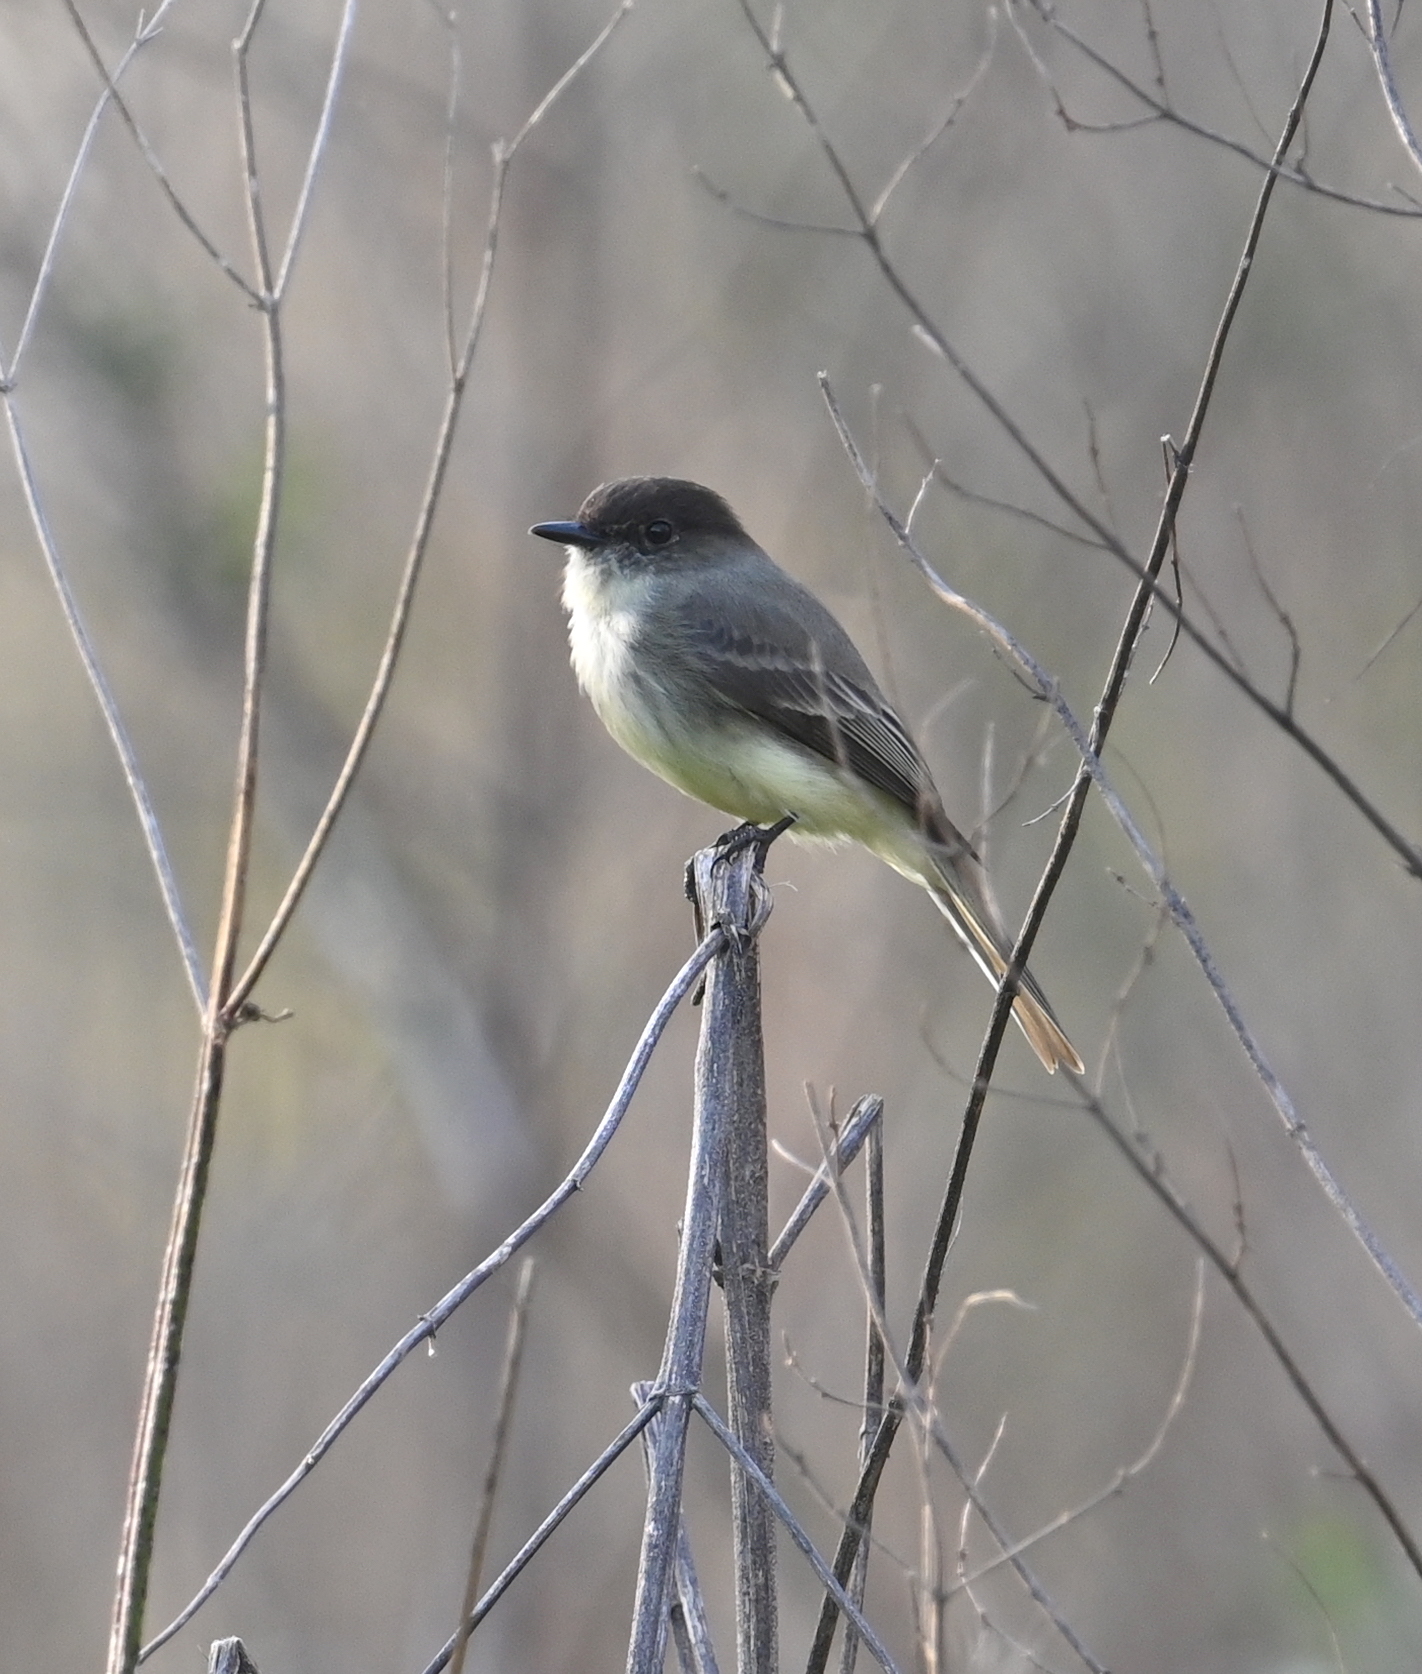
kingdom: Animalia
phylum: Chordata
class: Aves
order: Passeriformes
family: Tyrannidae
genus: Sayornis
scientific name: Sayornis phoebe
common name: Eastern phoebe
